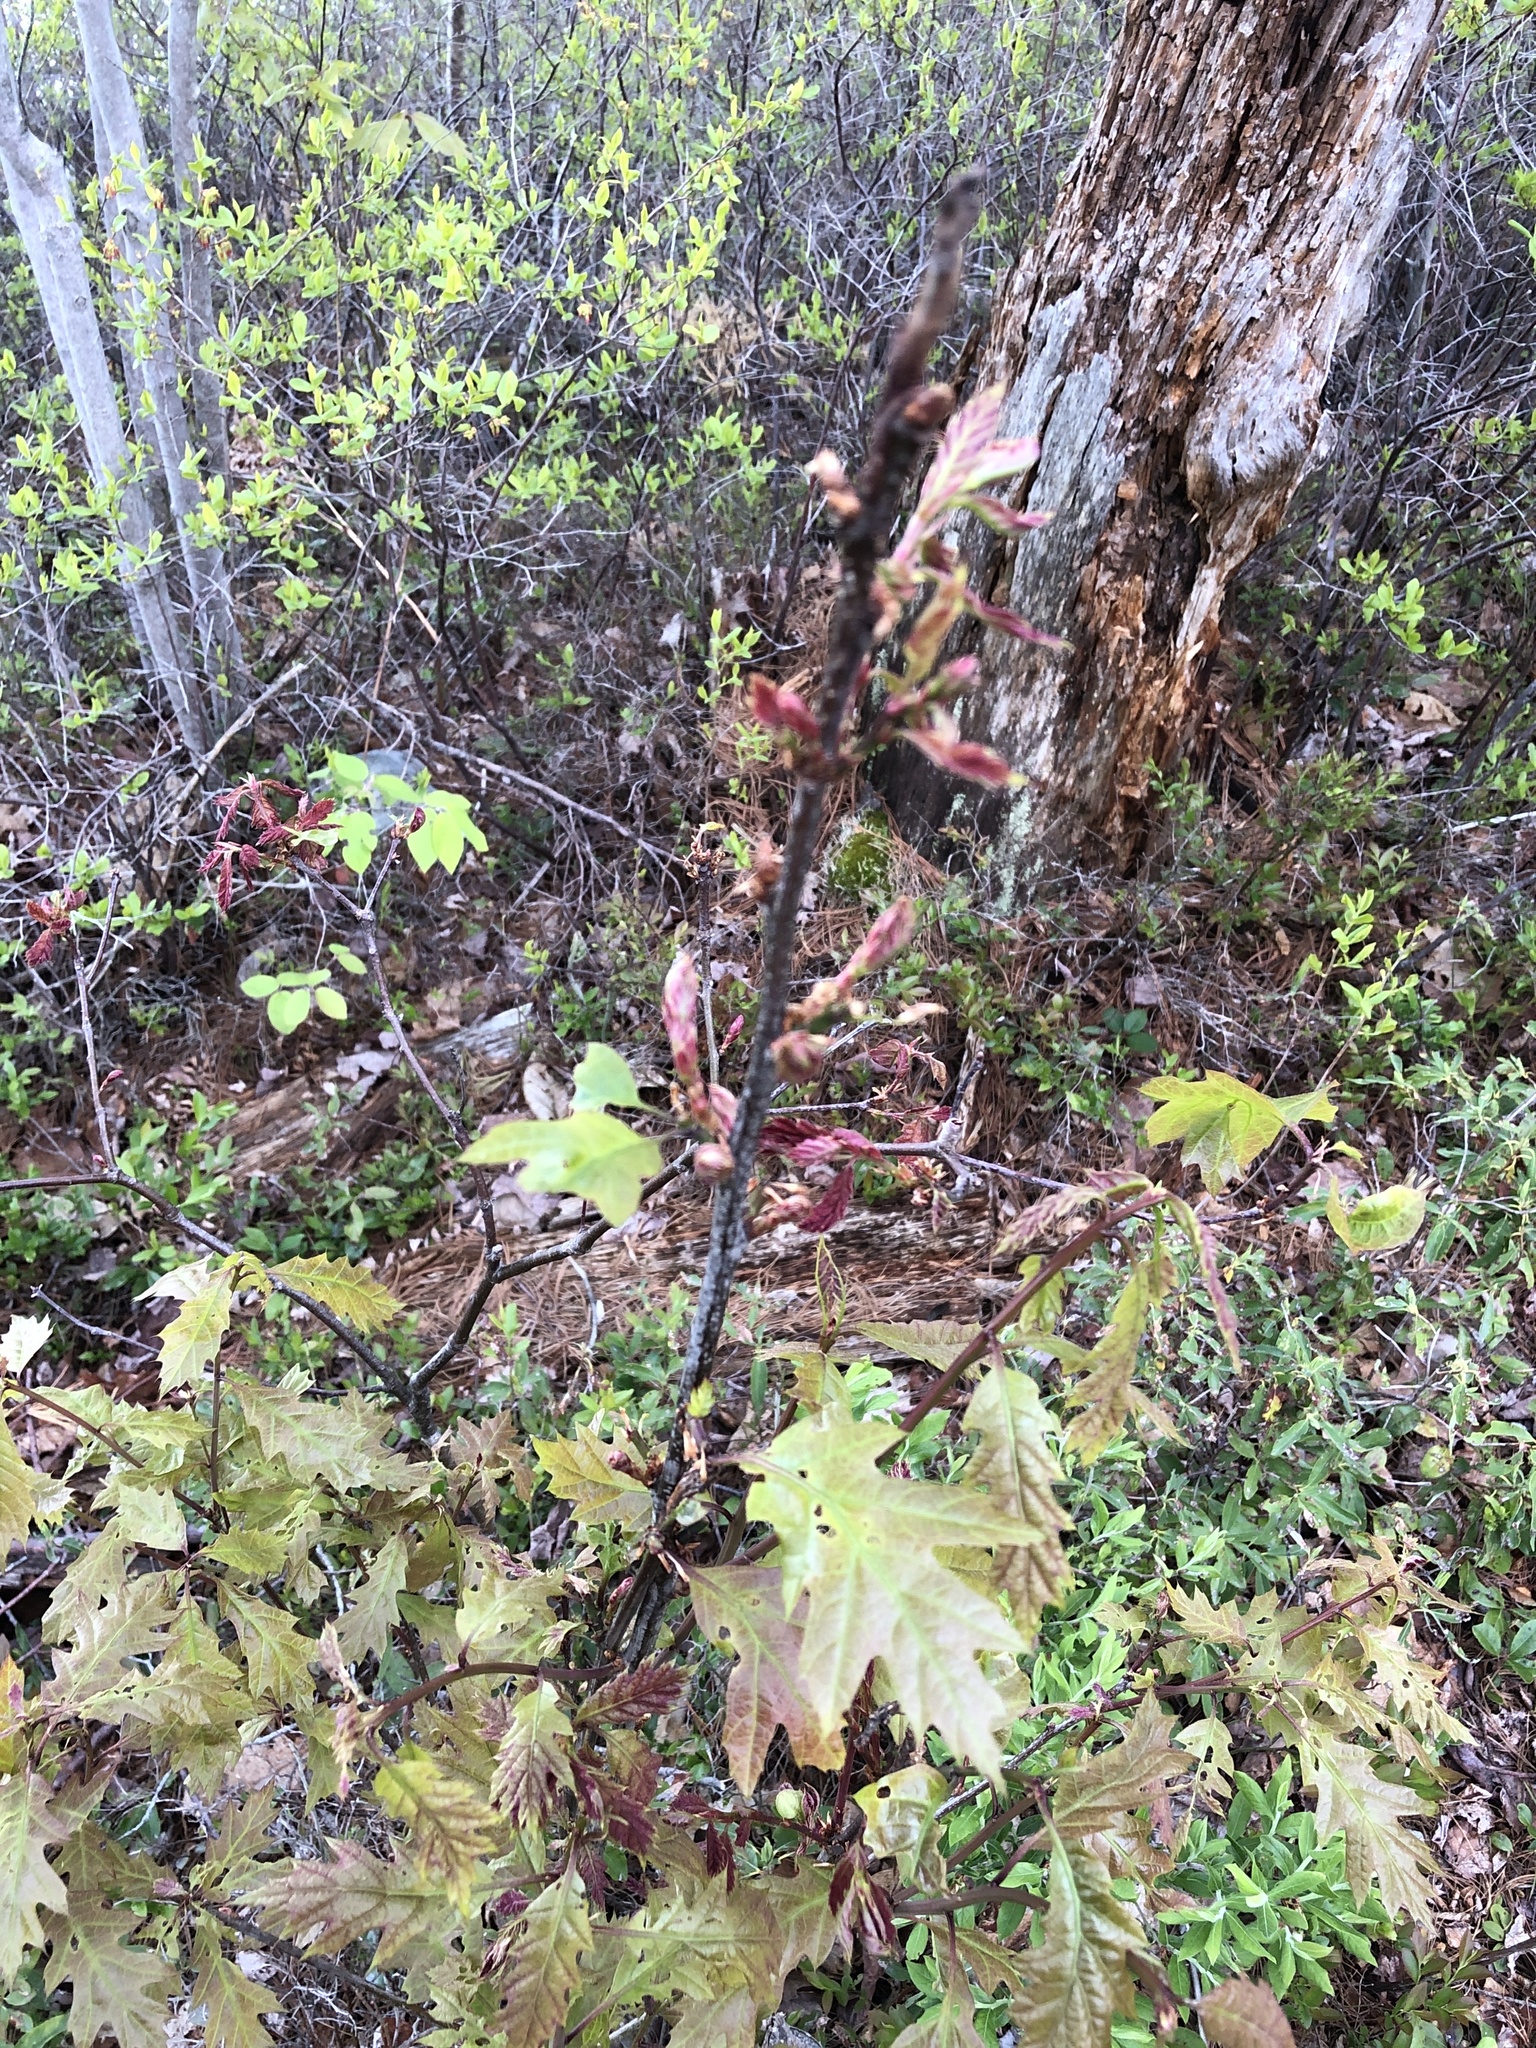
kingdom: Plantae
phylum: Tracheophyta
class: Magnoliopsida
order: Fagales
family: Fagaceae
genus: Quercus
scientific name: Quercus rubra
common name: Red oak
